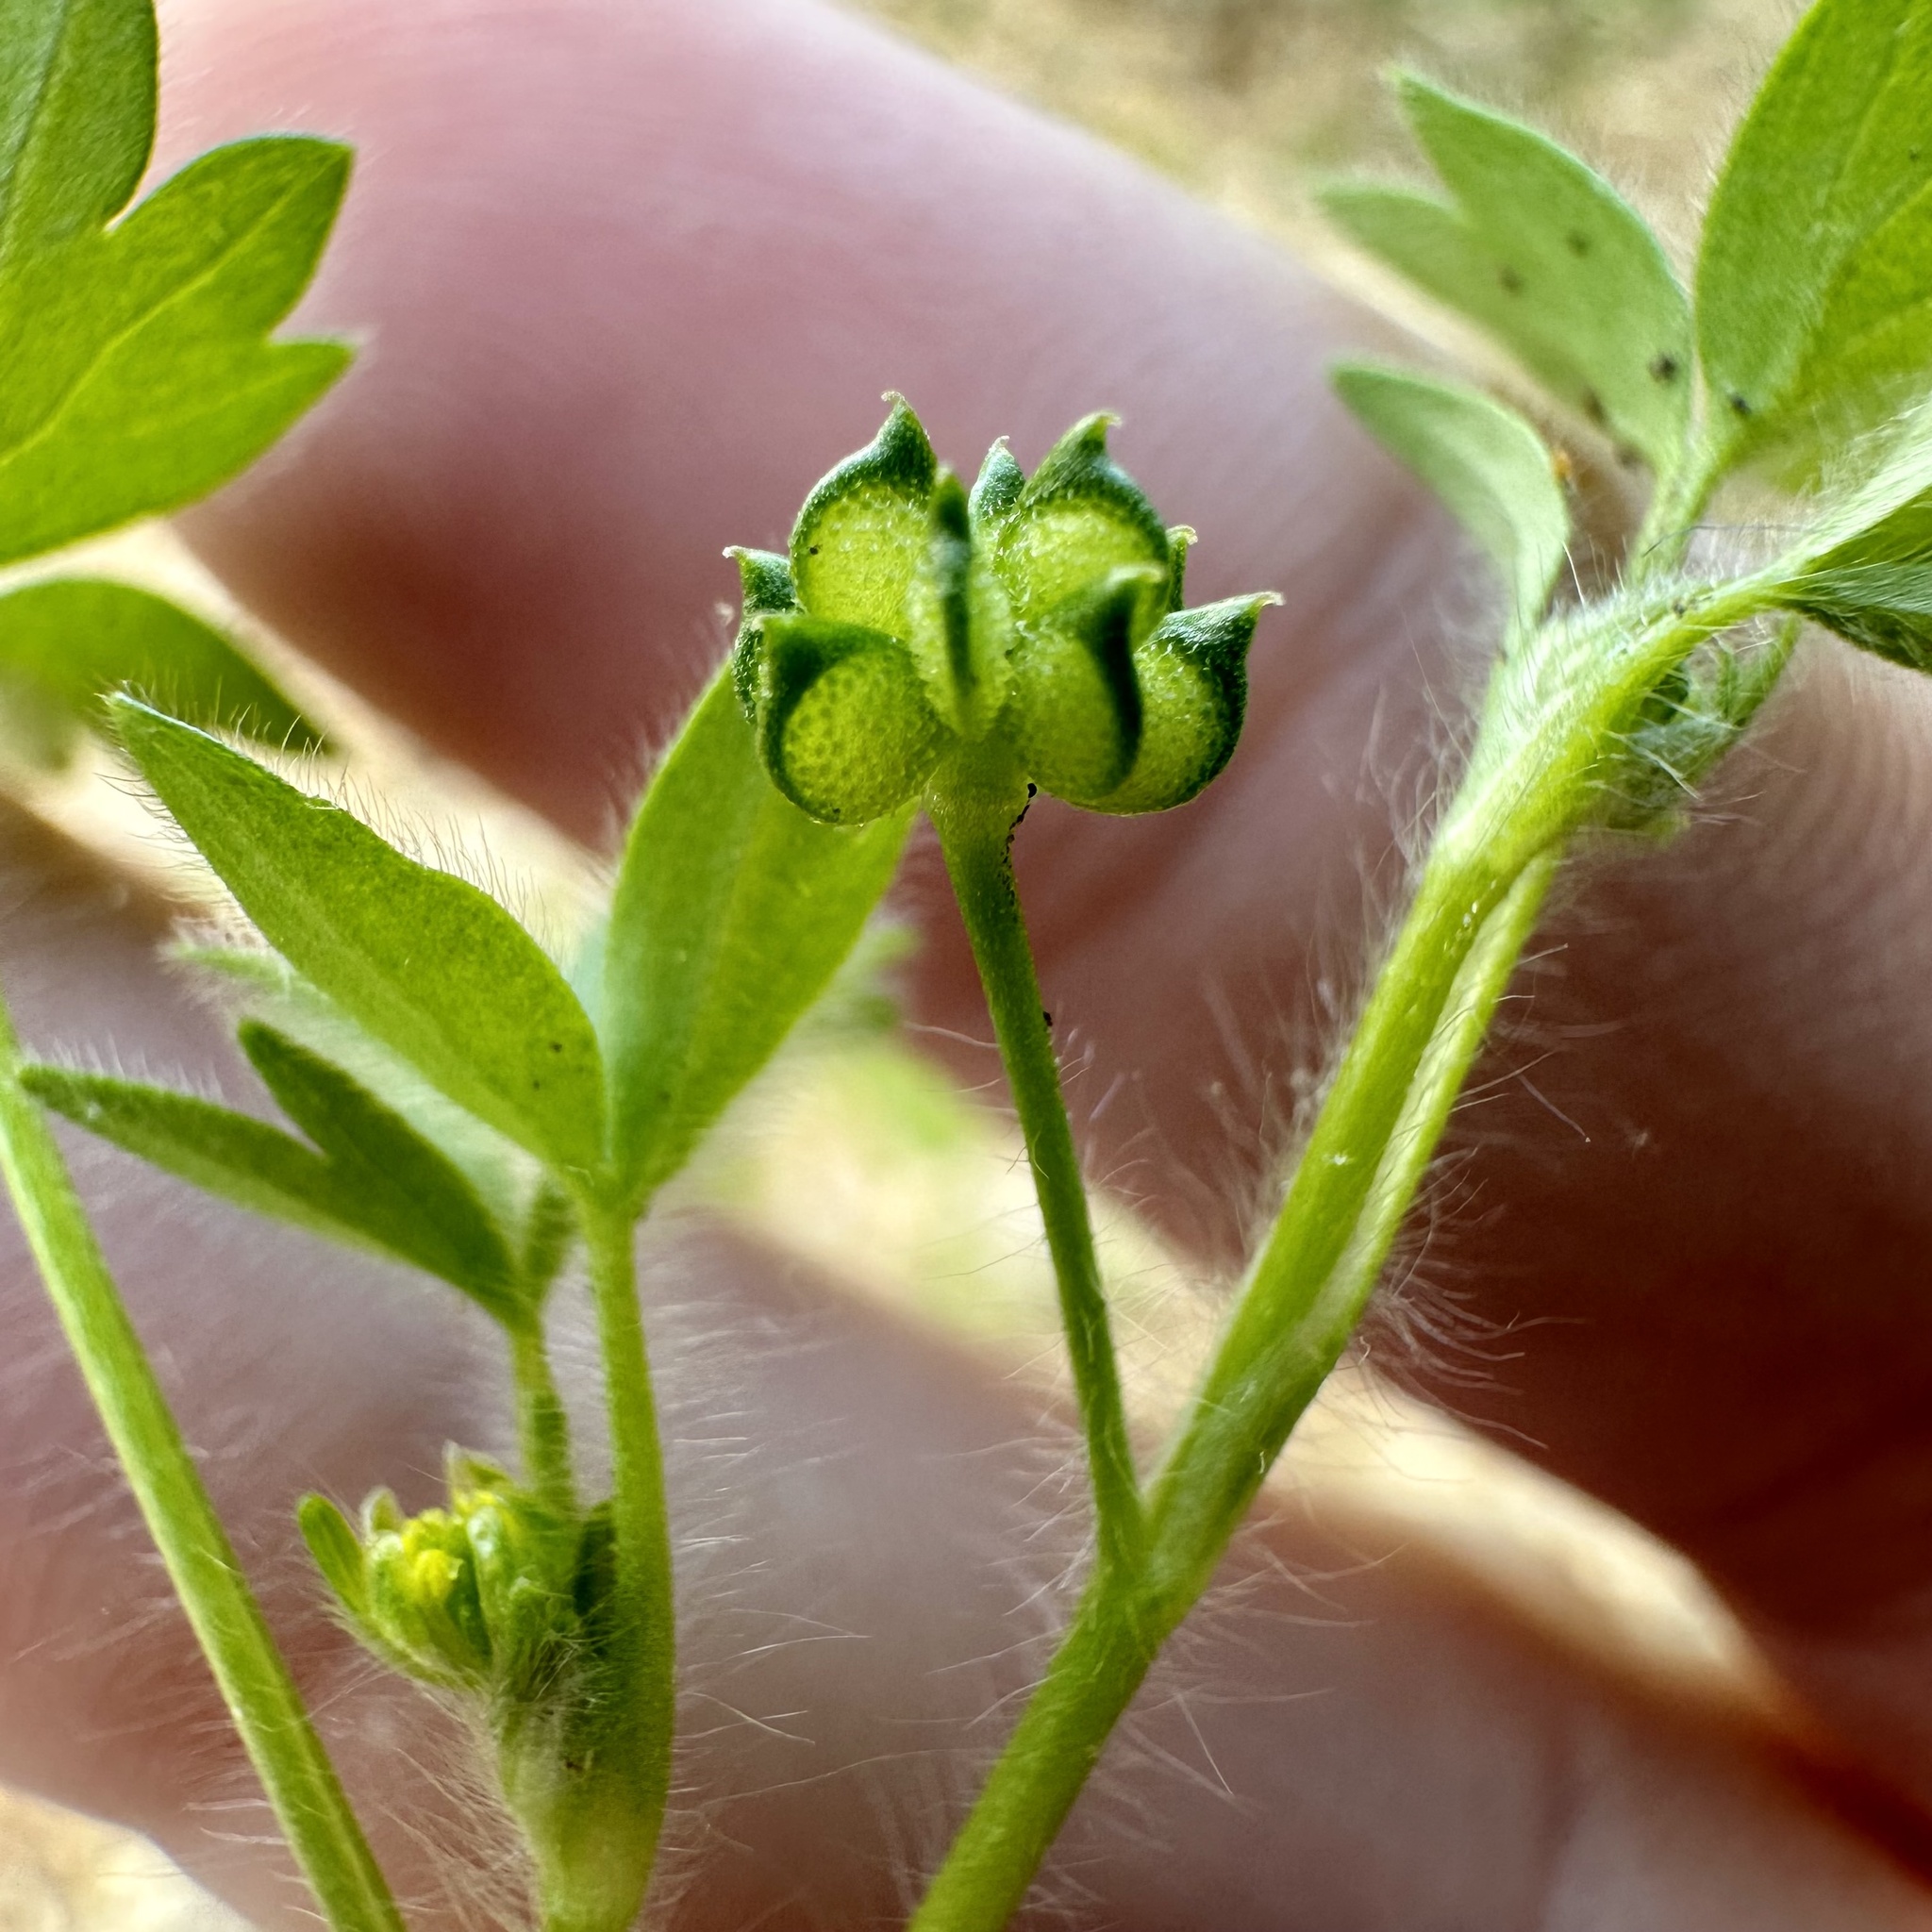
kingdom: Plantae
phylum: Tracheophyta
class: Magnoliopsida
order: Ranunculales
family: Ranunculaceae
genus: Ranunculus
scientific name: Ranunculus parviflorus
